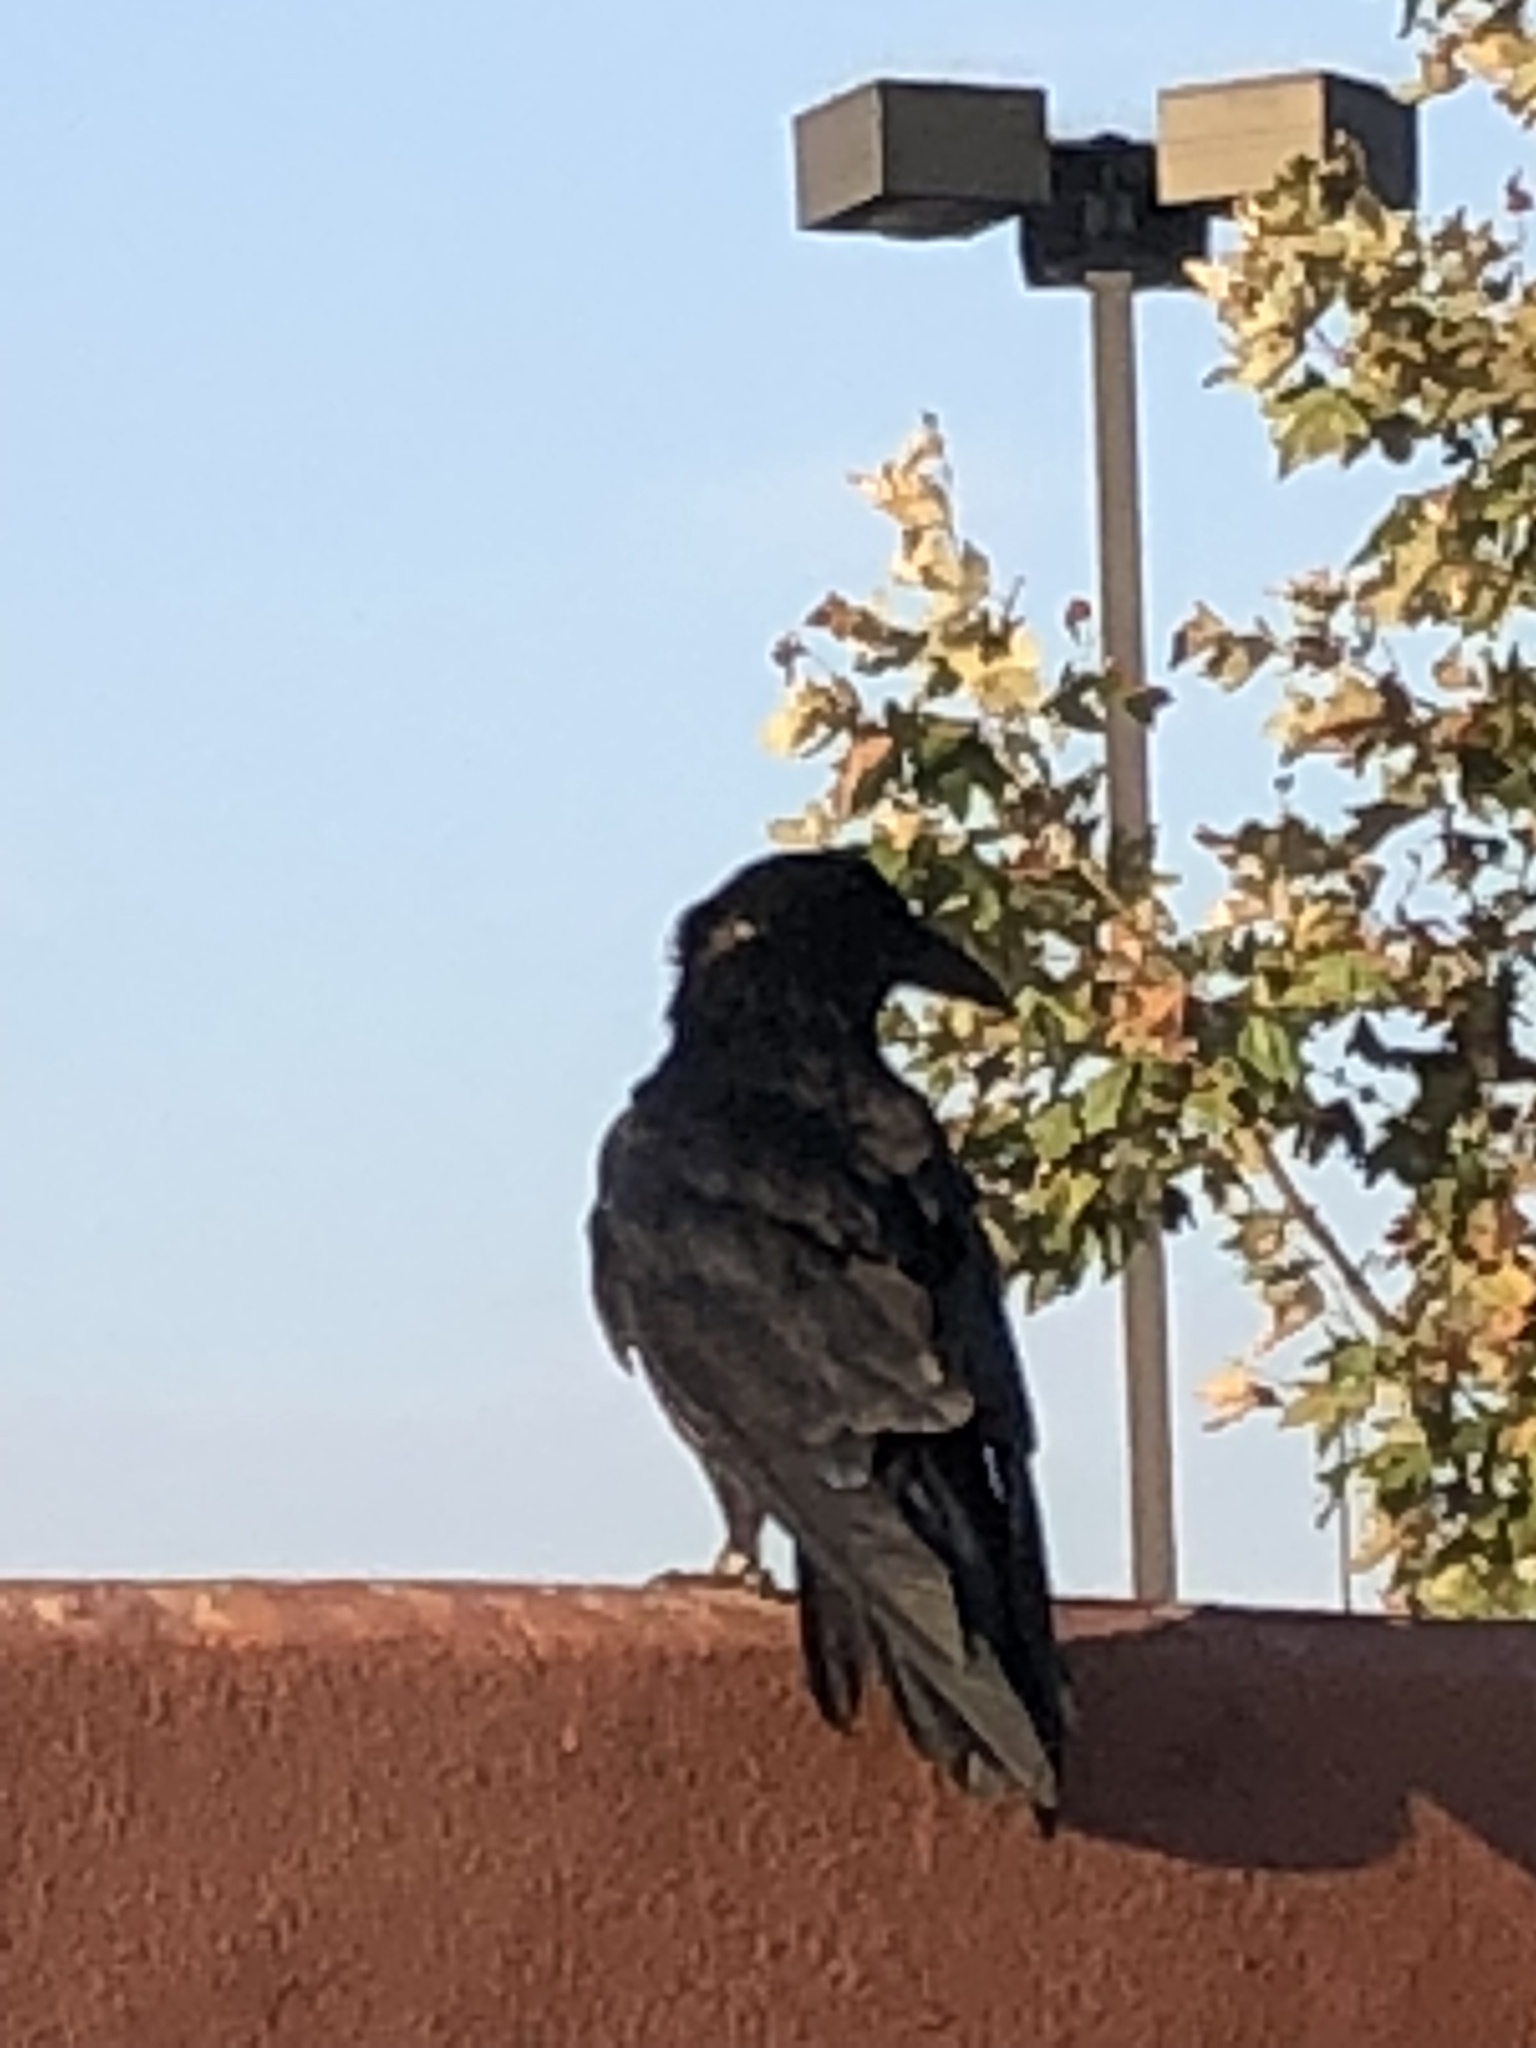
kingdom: Animalia
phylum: Chordata
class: Aves
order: Passeriformes
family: Corvidae
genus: Corvus
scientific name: Corvus corax
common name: Common raven
